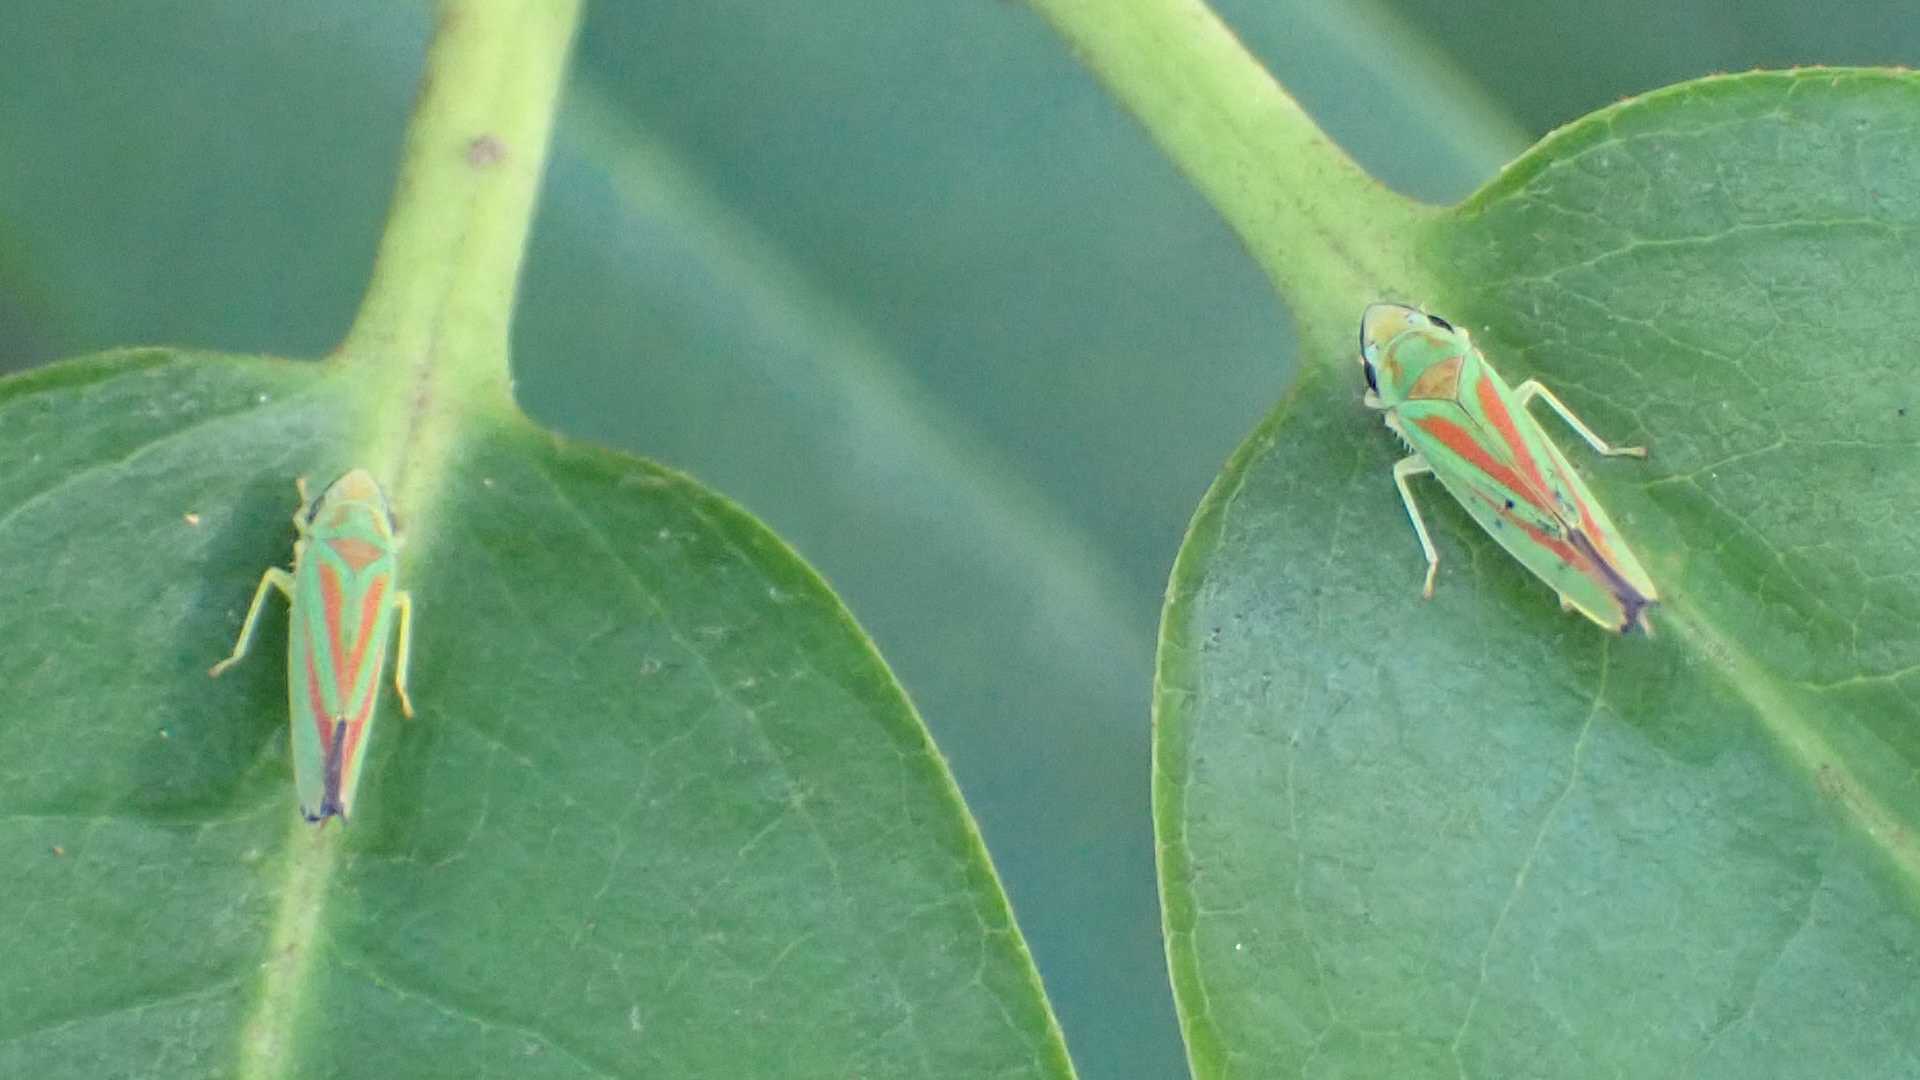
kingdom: Animalia
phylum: Arthropoda
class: Insecta
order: Hemiptera
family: Cicadellidae
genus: Graphocephala
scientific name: Graphocephala fennahi
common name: Rhododendron leafhopper
